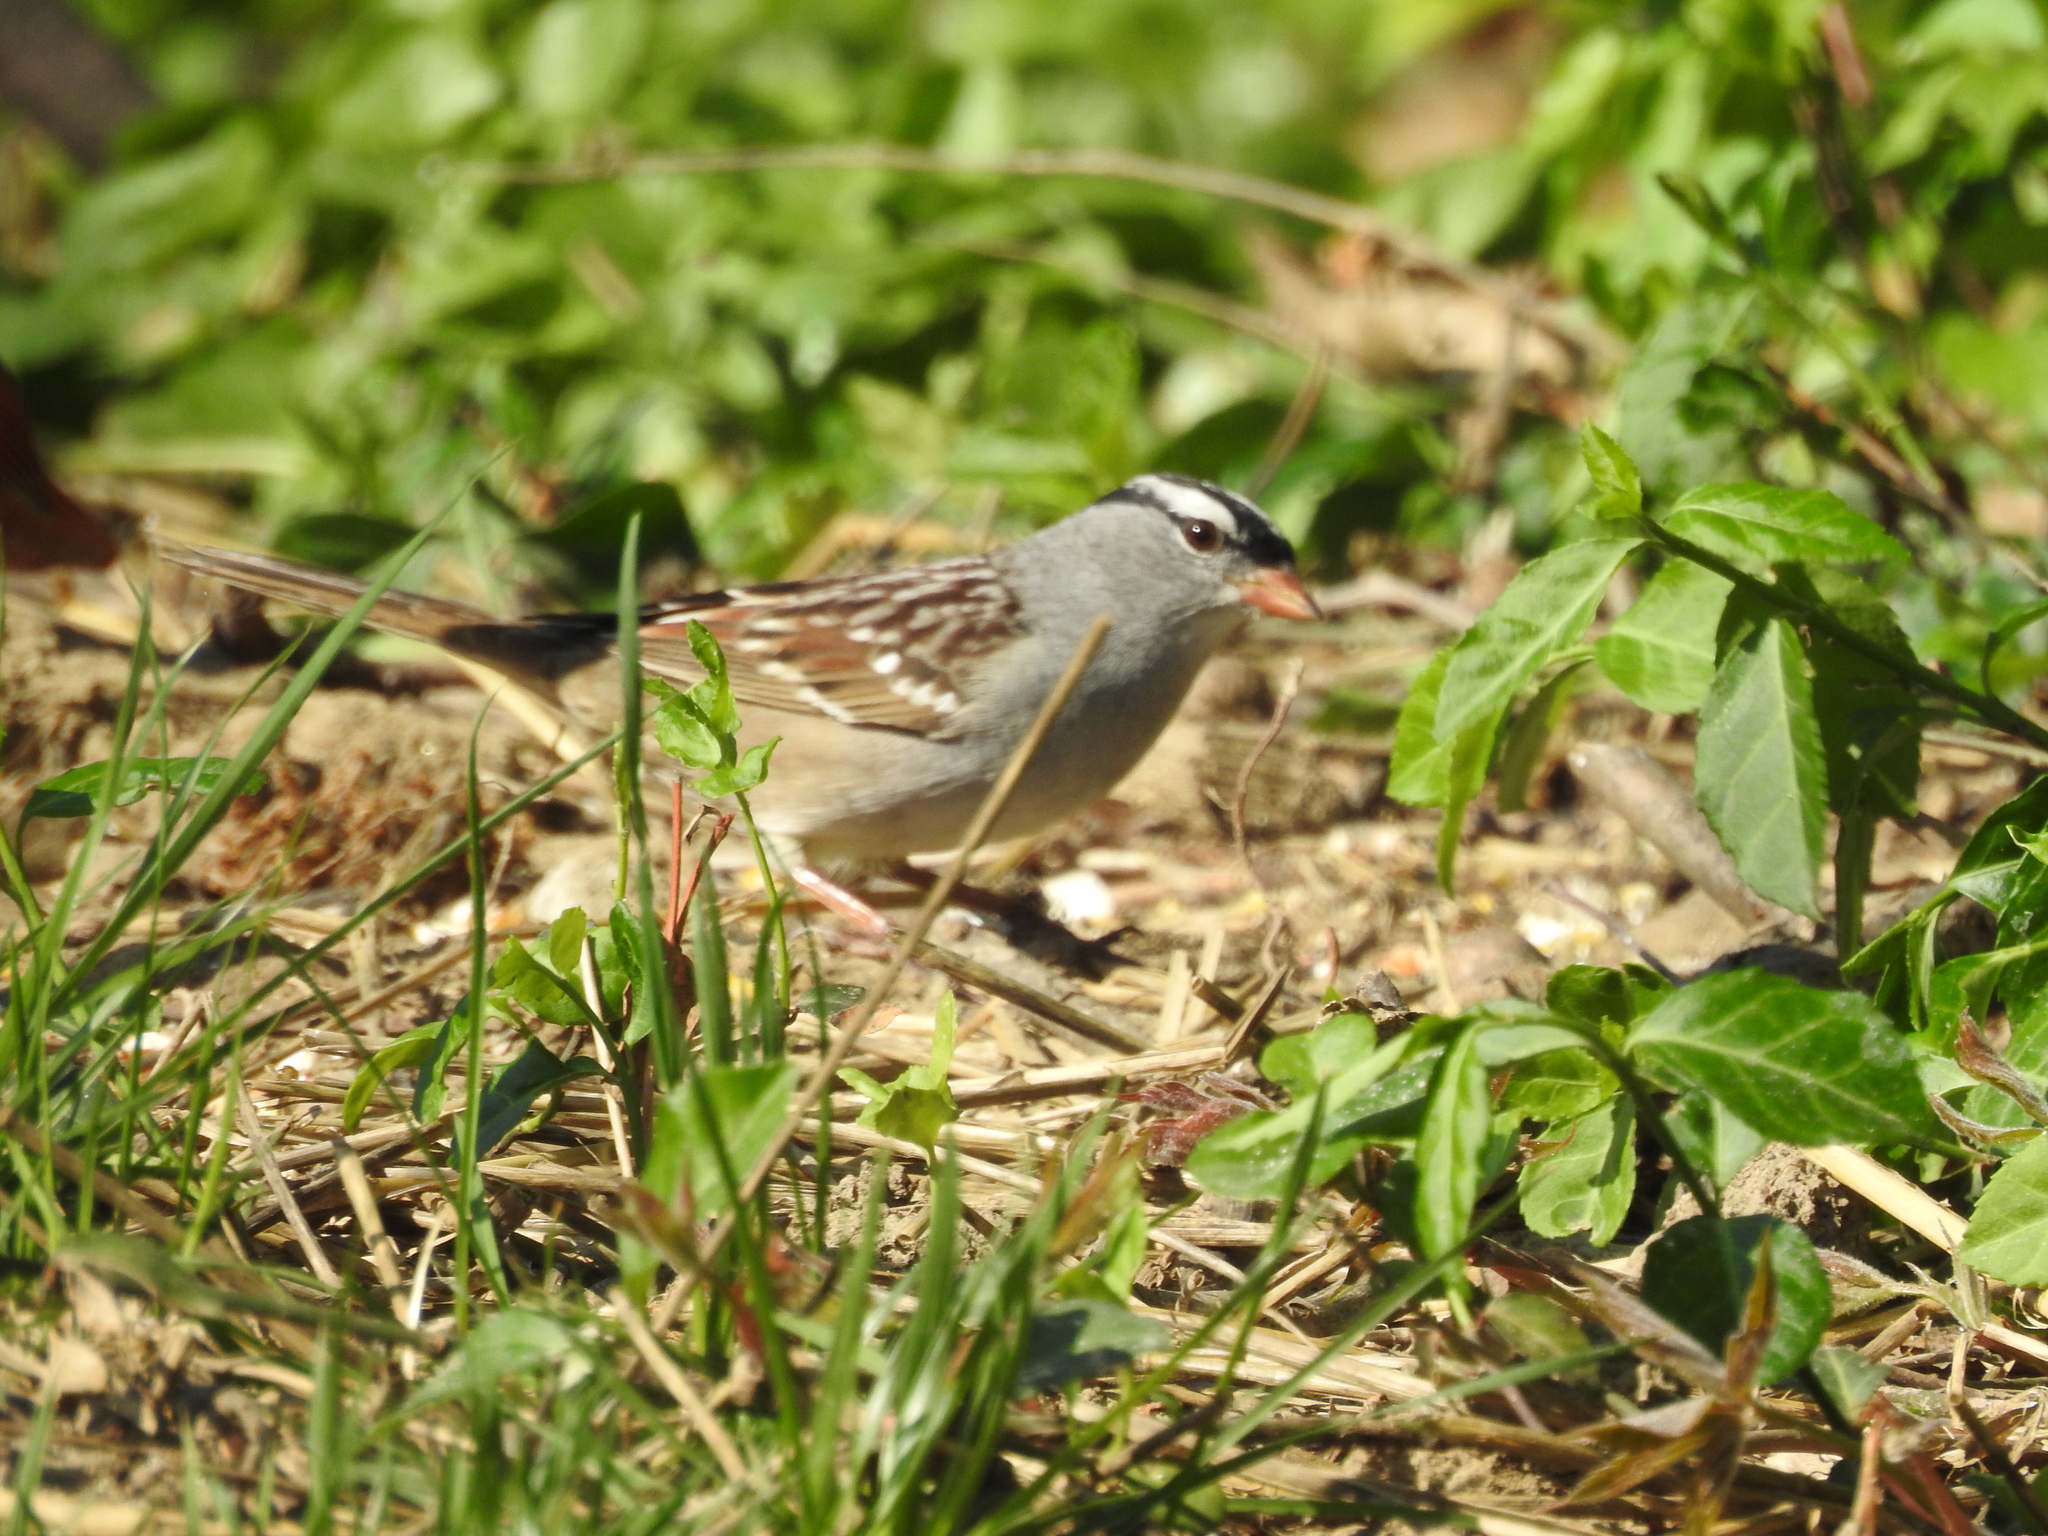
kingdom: Animalia
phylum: Chordata
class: Aves
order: Passeriformes
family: Passerellidae
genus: Zonotrichia
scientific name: Zonotrichia leucophrys
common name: White-crowned sparrow
